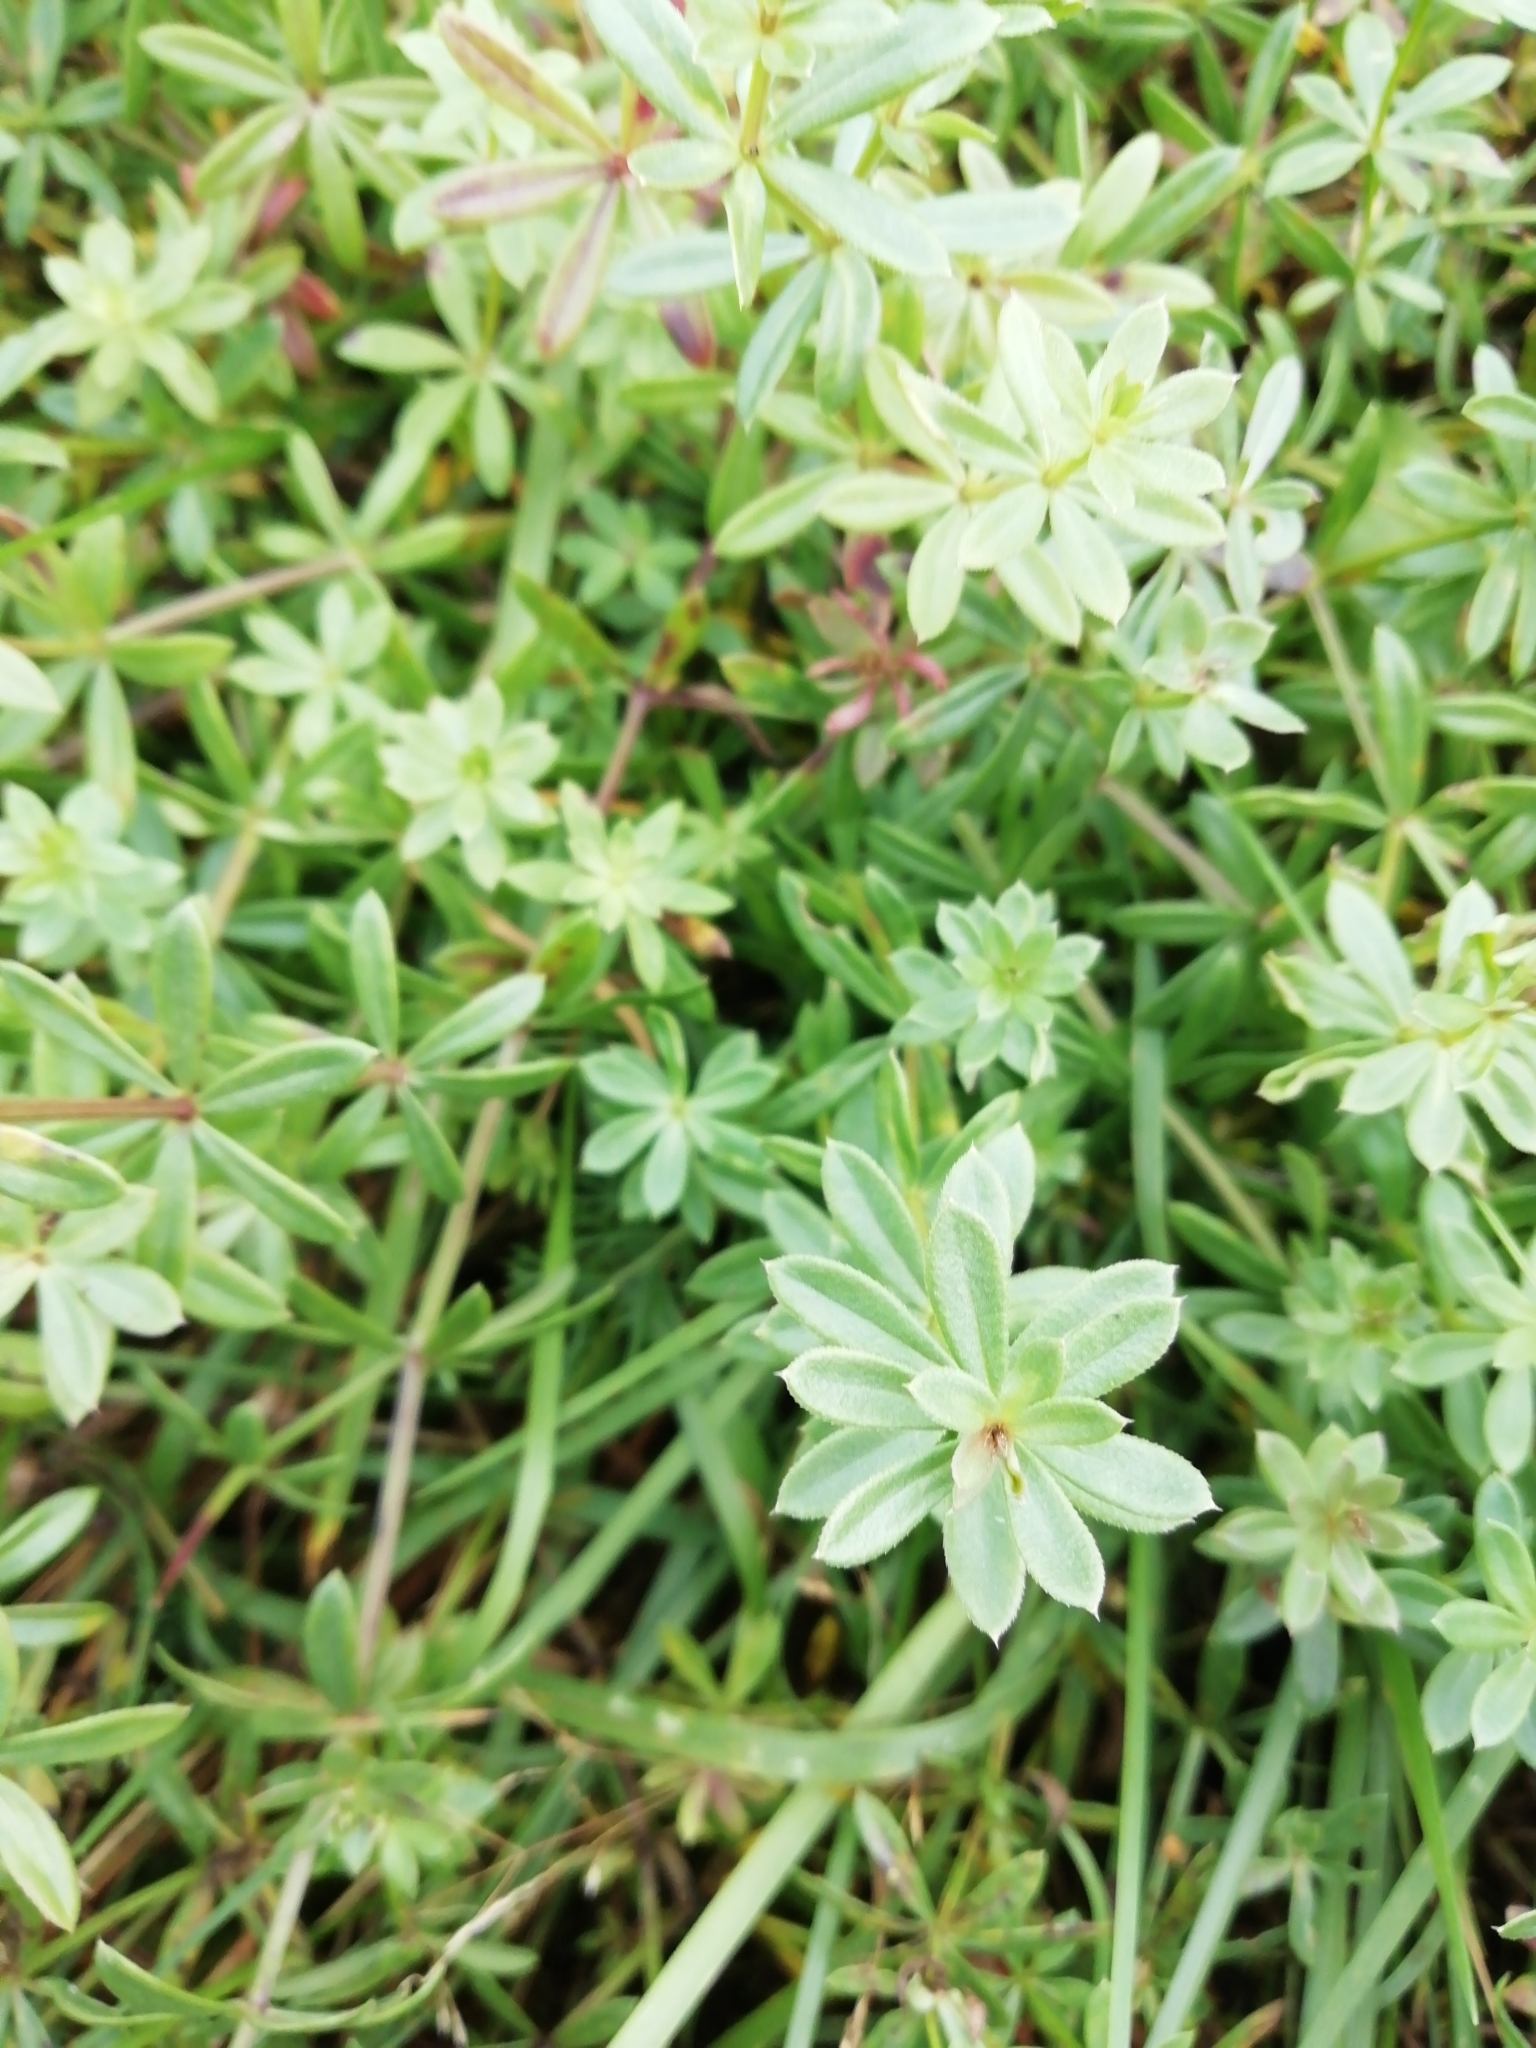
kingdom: Plantae
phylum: Tracheophyta
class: Magnoliopsida
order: Gentianales
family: Rubiaceae
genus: Galium
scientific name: Galium mollugo
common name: Hedge bedstraw
